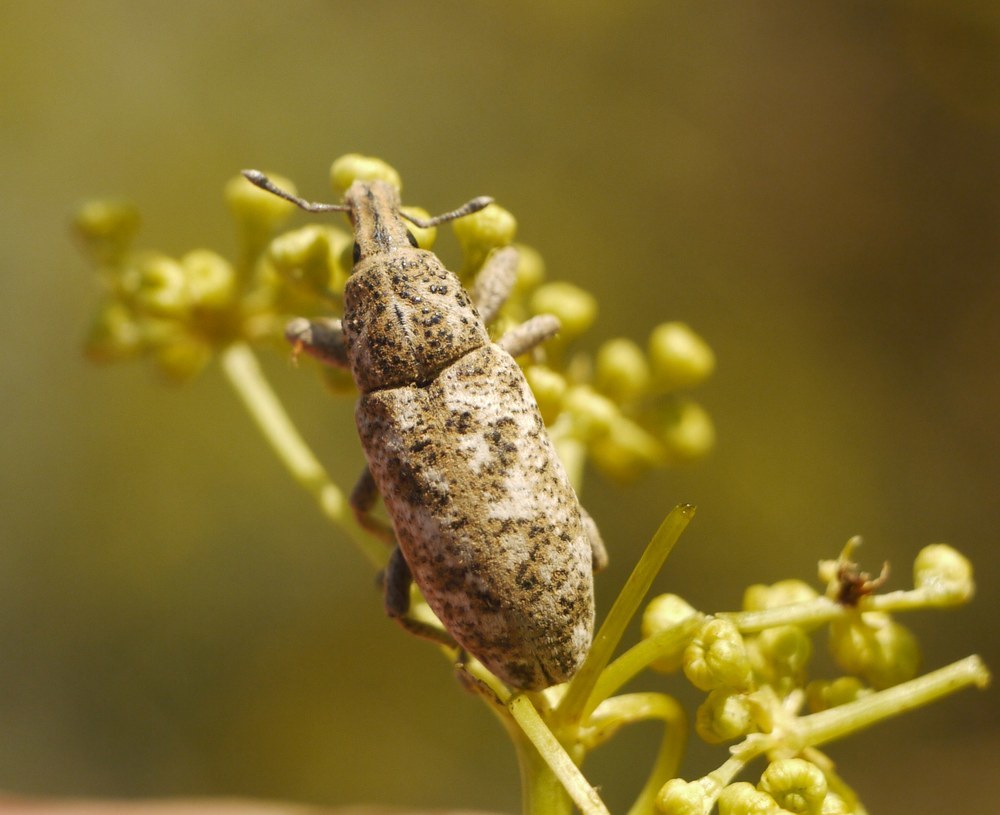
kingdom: Animalia
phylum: Arthropoda
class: Insecta
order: Coleoptera
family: Curculionidae
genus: Cyphocleonus
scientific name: Cyphocleonus dealbatus
